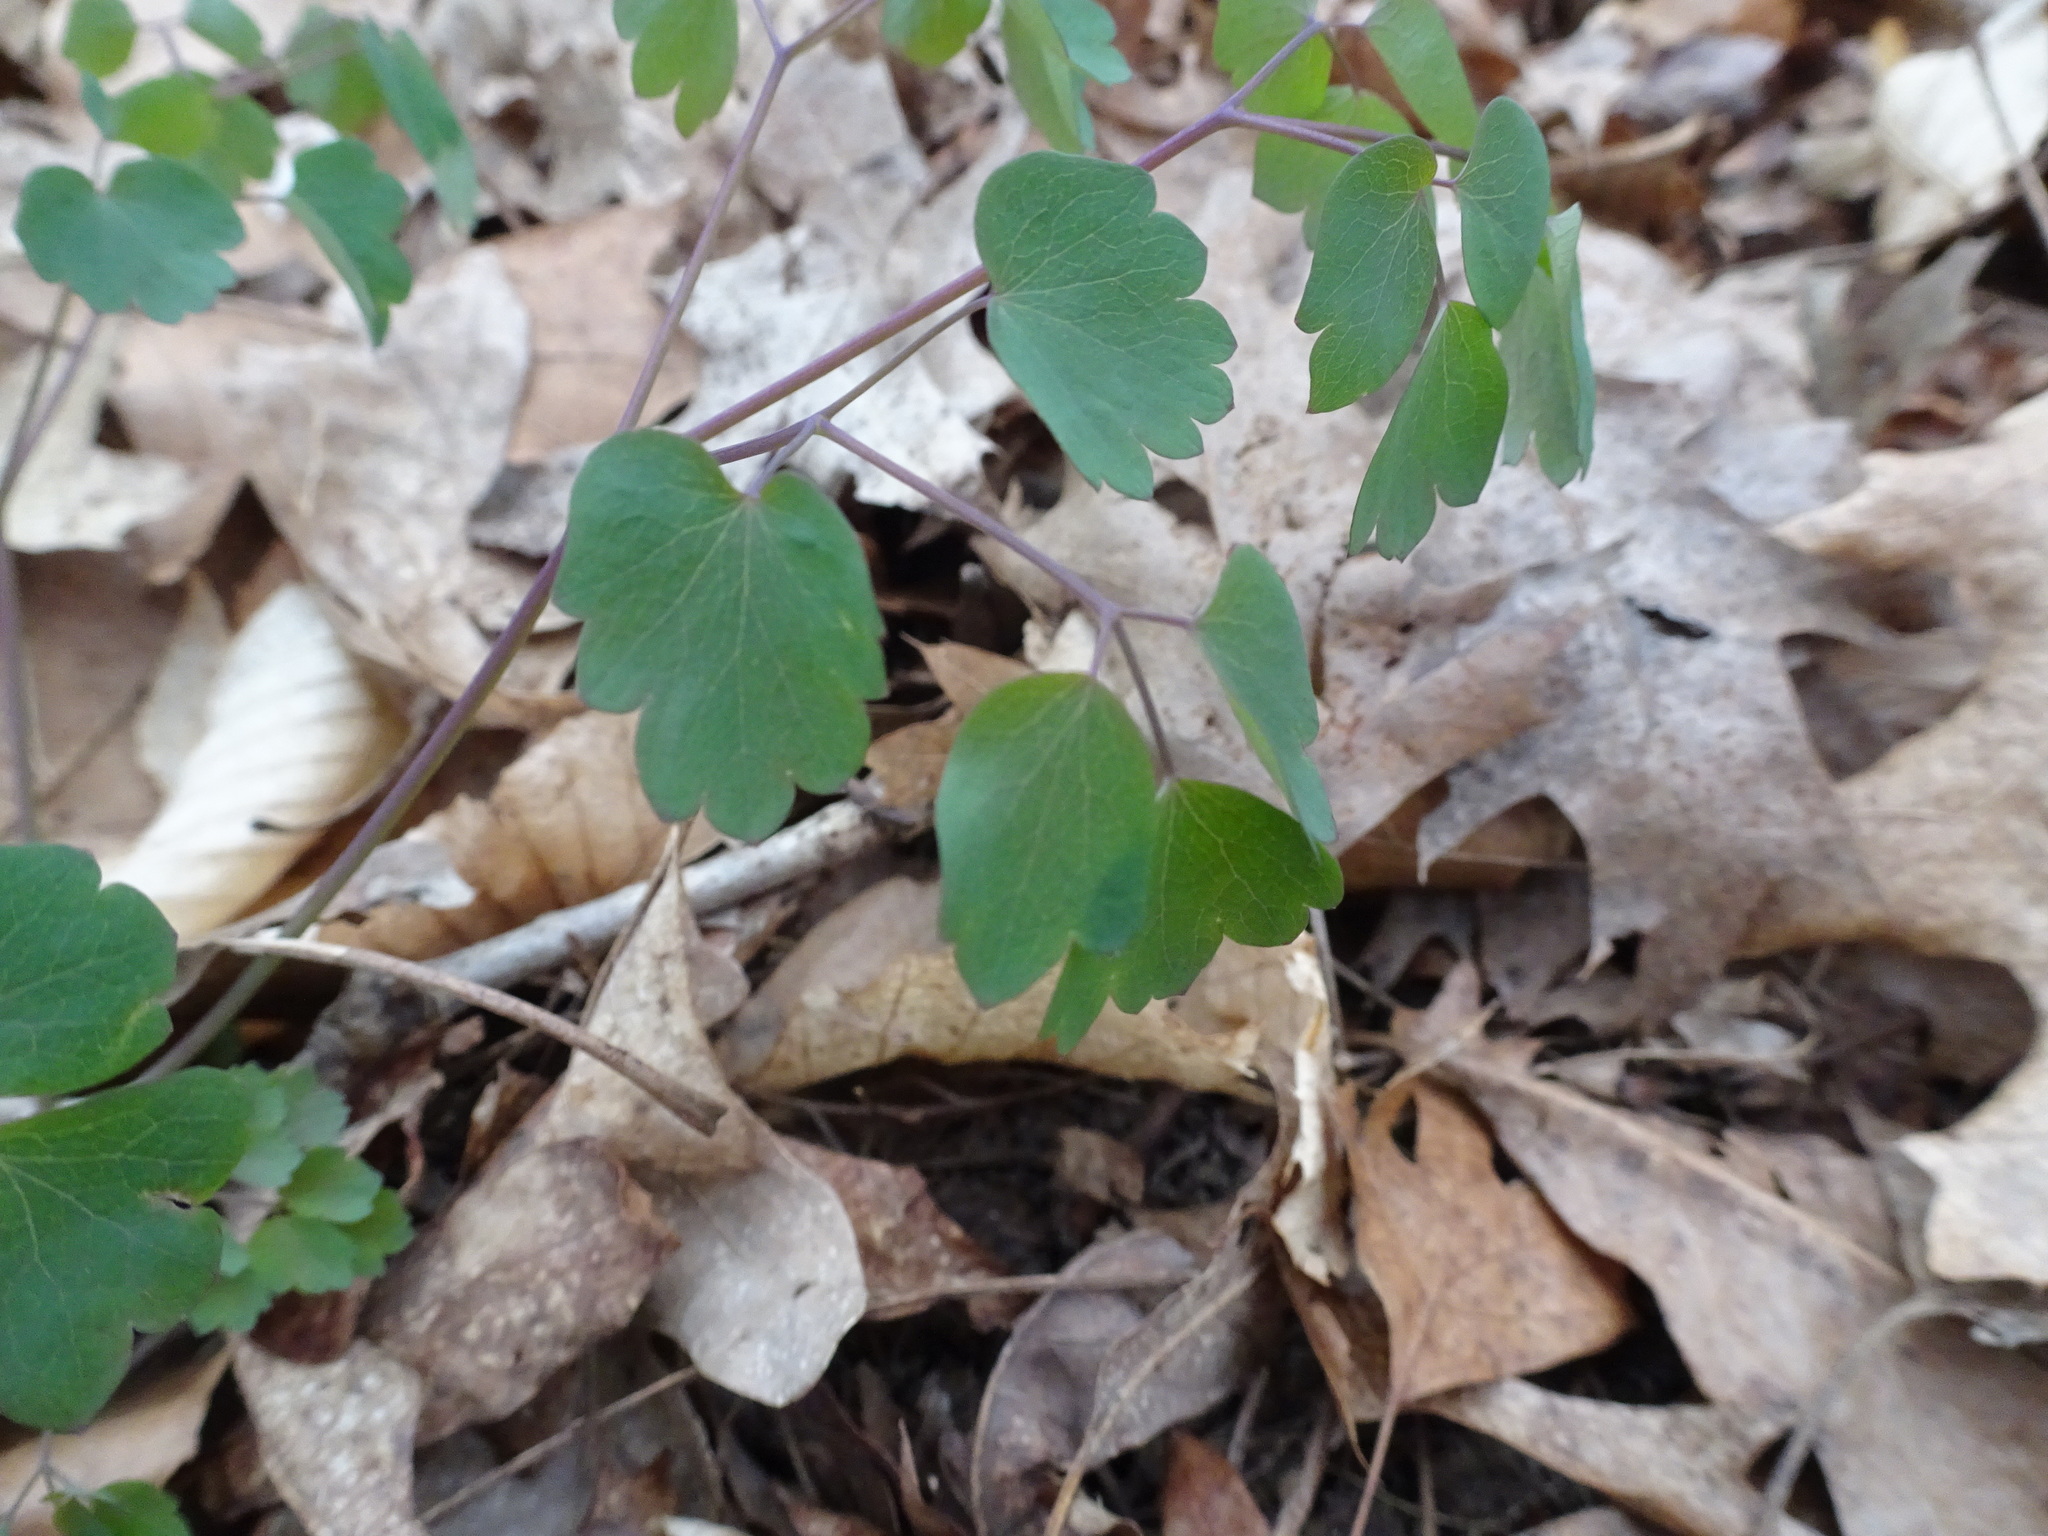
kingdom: Plantae
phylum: Tracheophyta
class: Magnoliopsida
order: Ranunculales
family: Ranunculaceae
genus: Thalictrum
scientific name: Thalictrum dioicum
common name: Early meadow-rue
